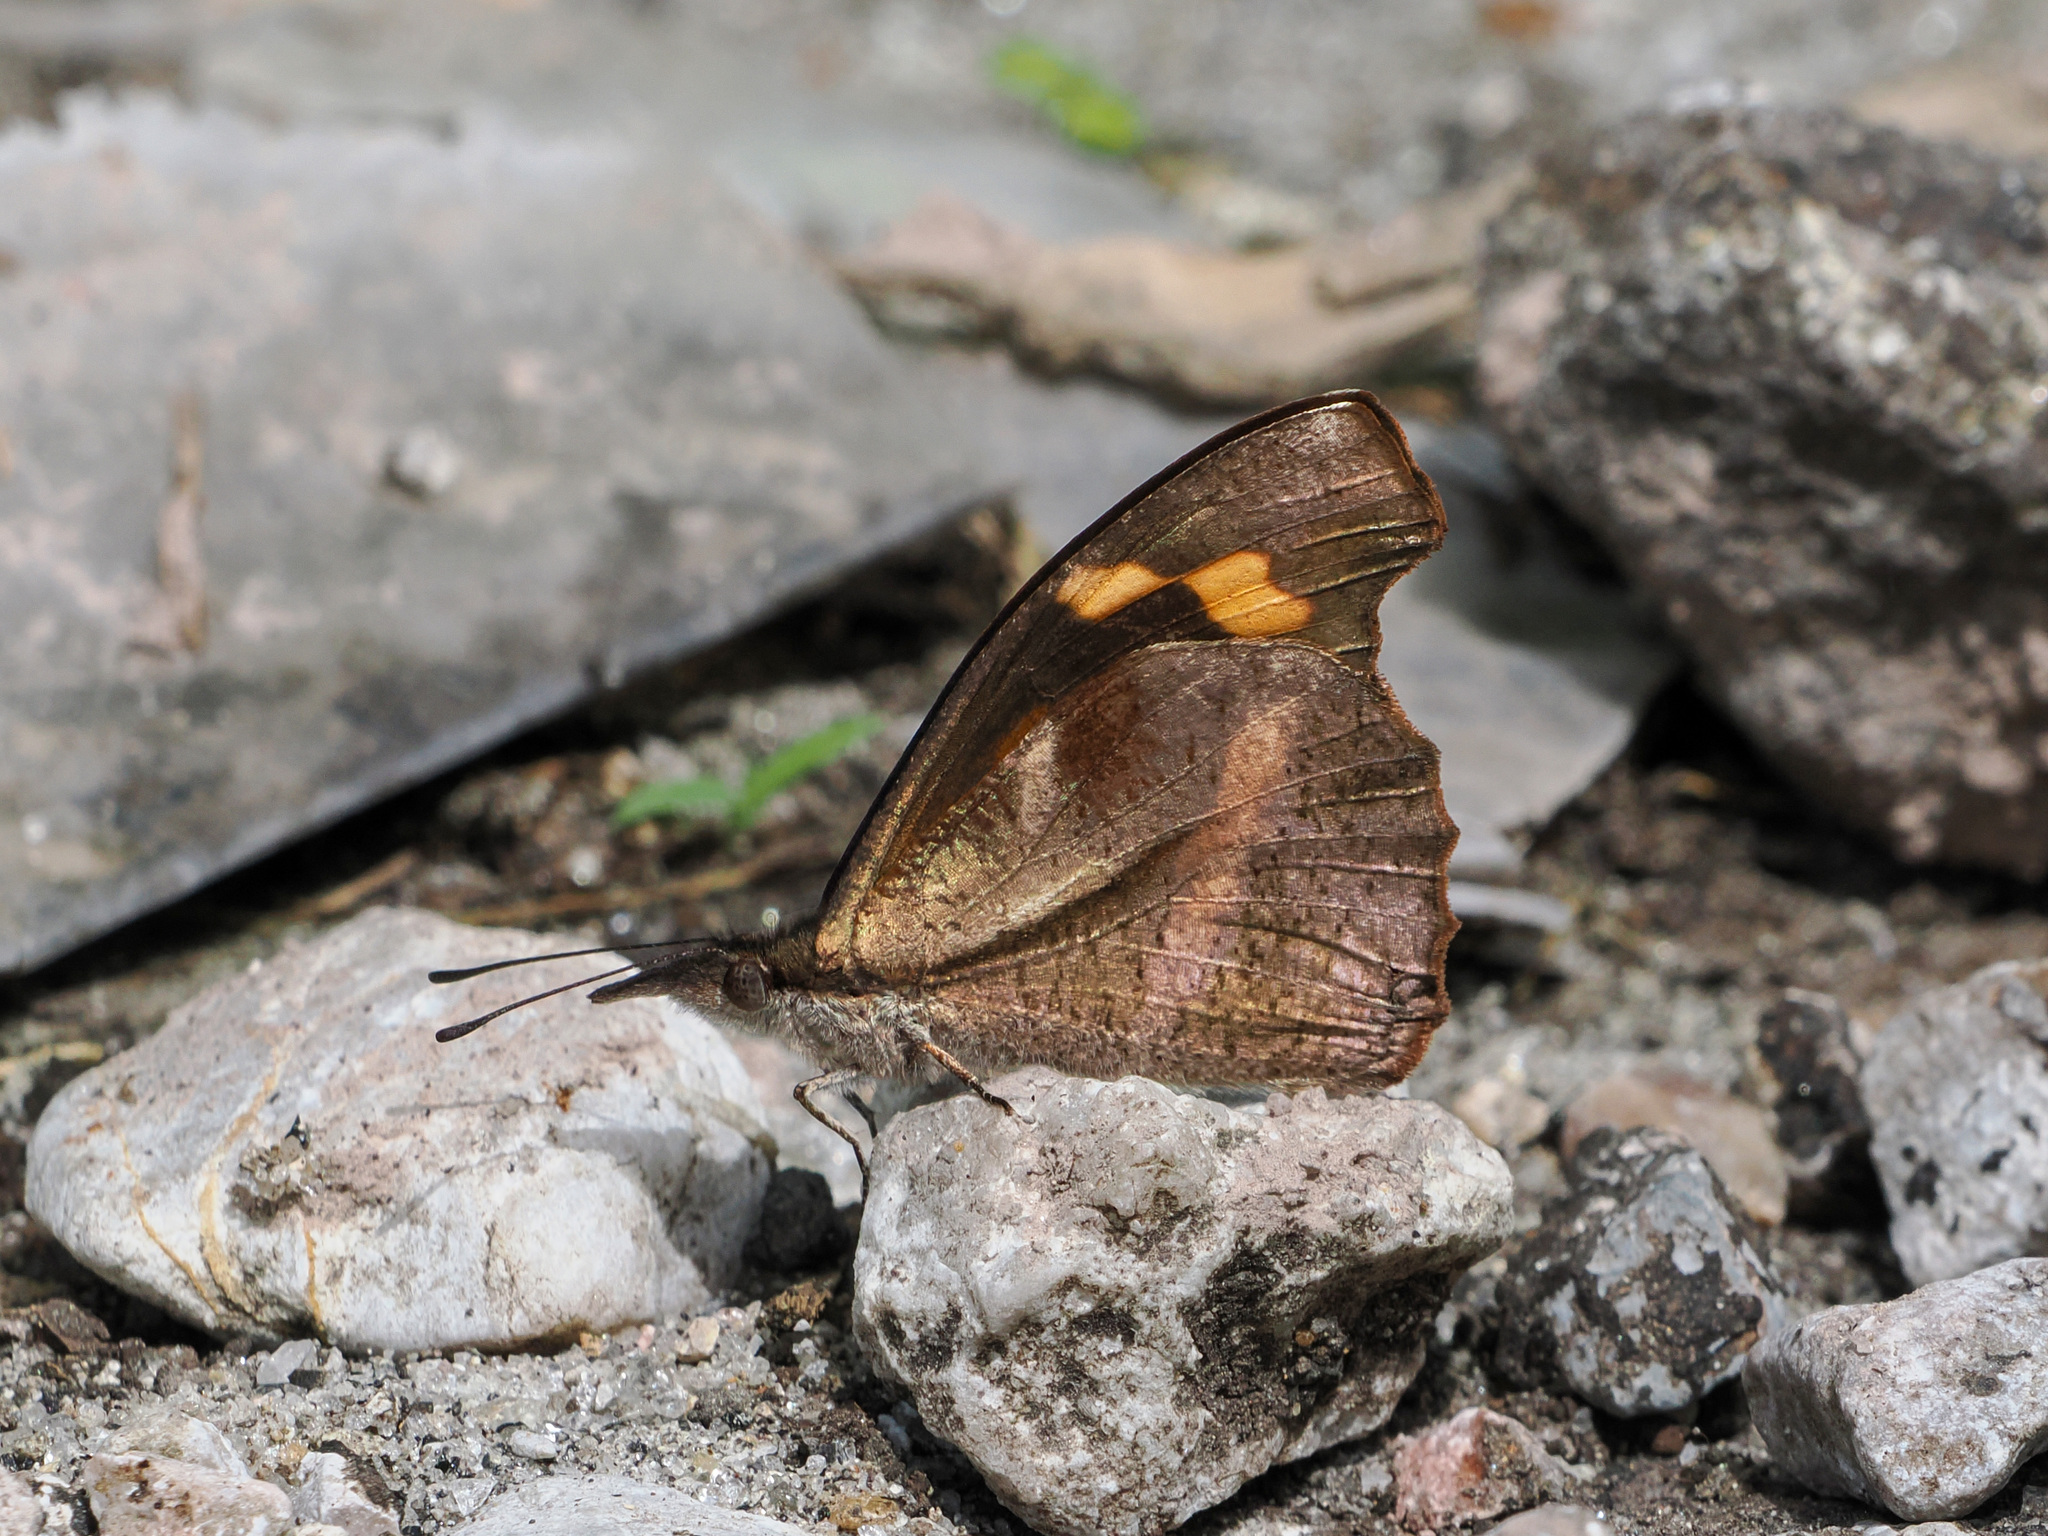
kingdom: Animalia
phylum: Arthropoda
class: Insecta
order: Lepidoptera
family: Nymphalidae
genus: Libythea
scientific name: Libythea myrrha
